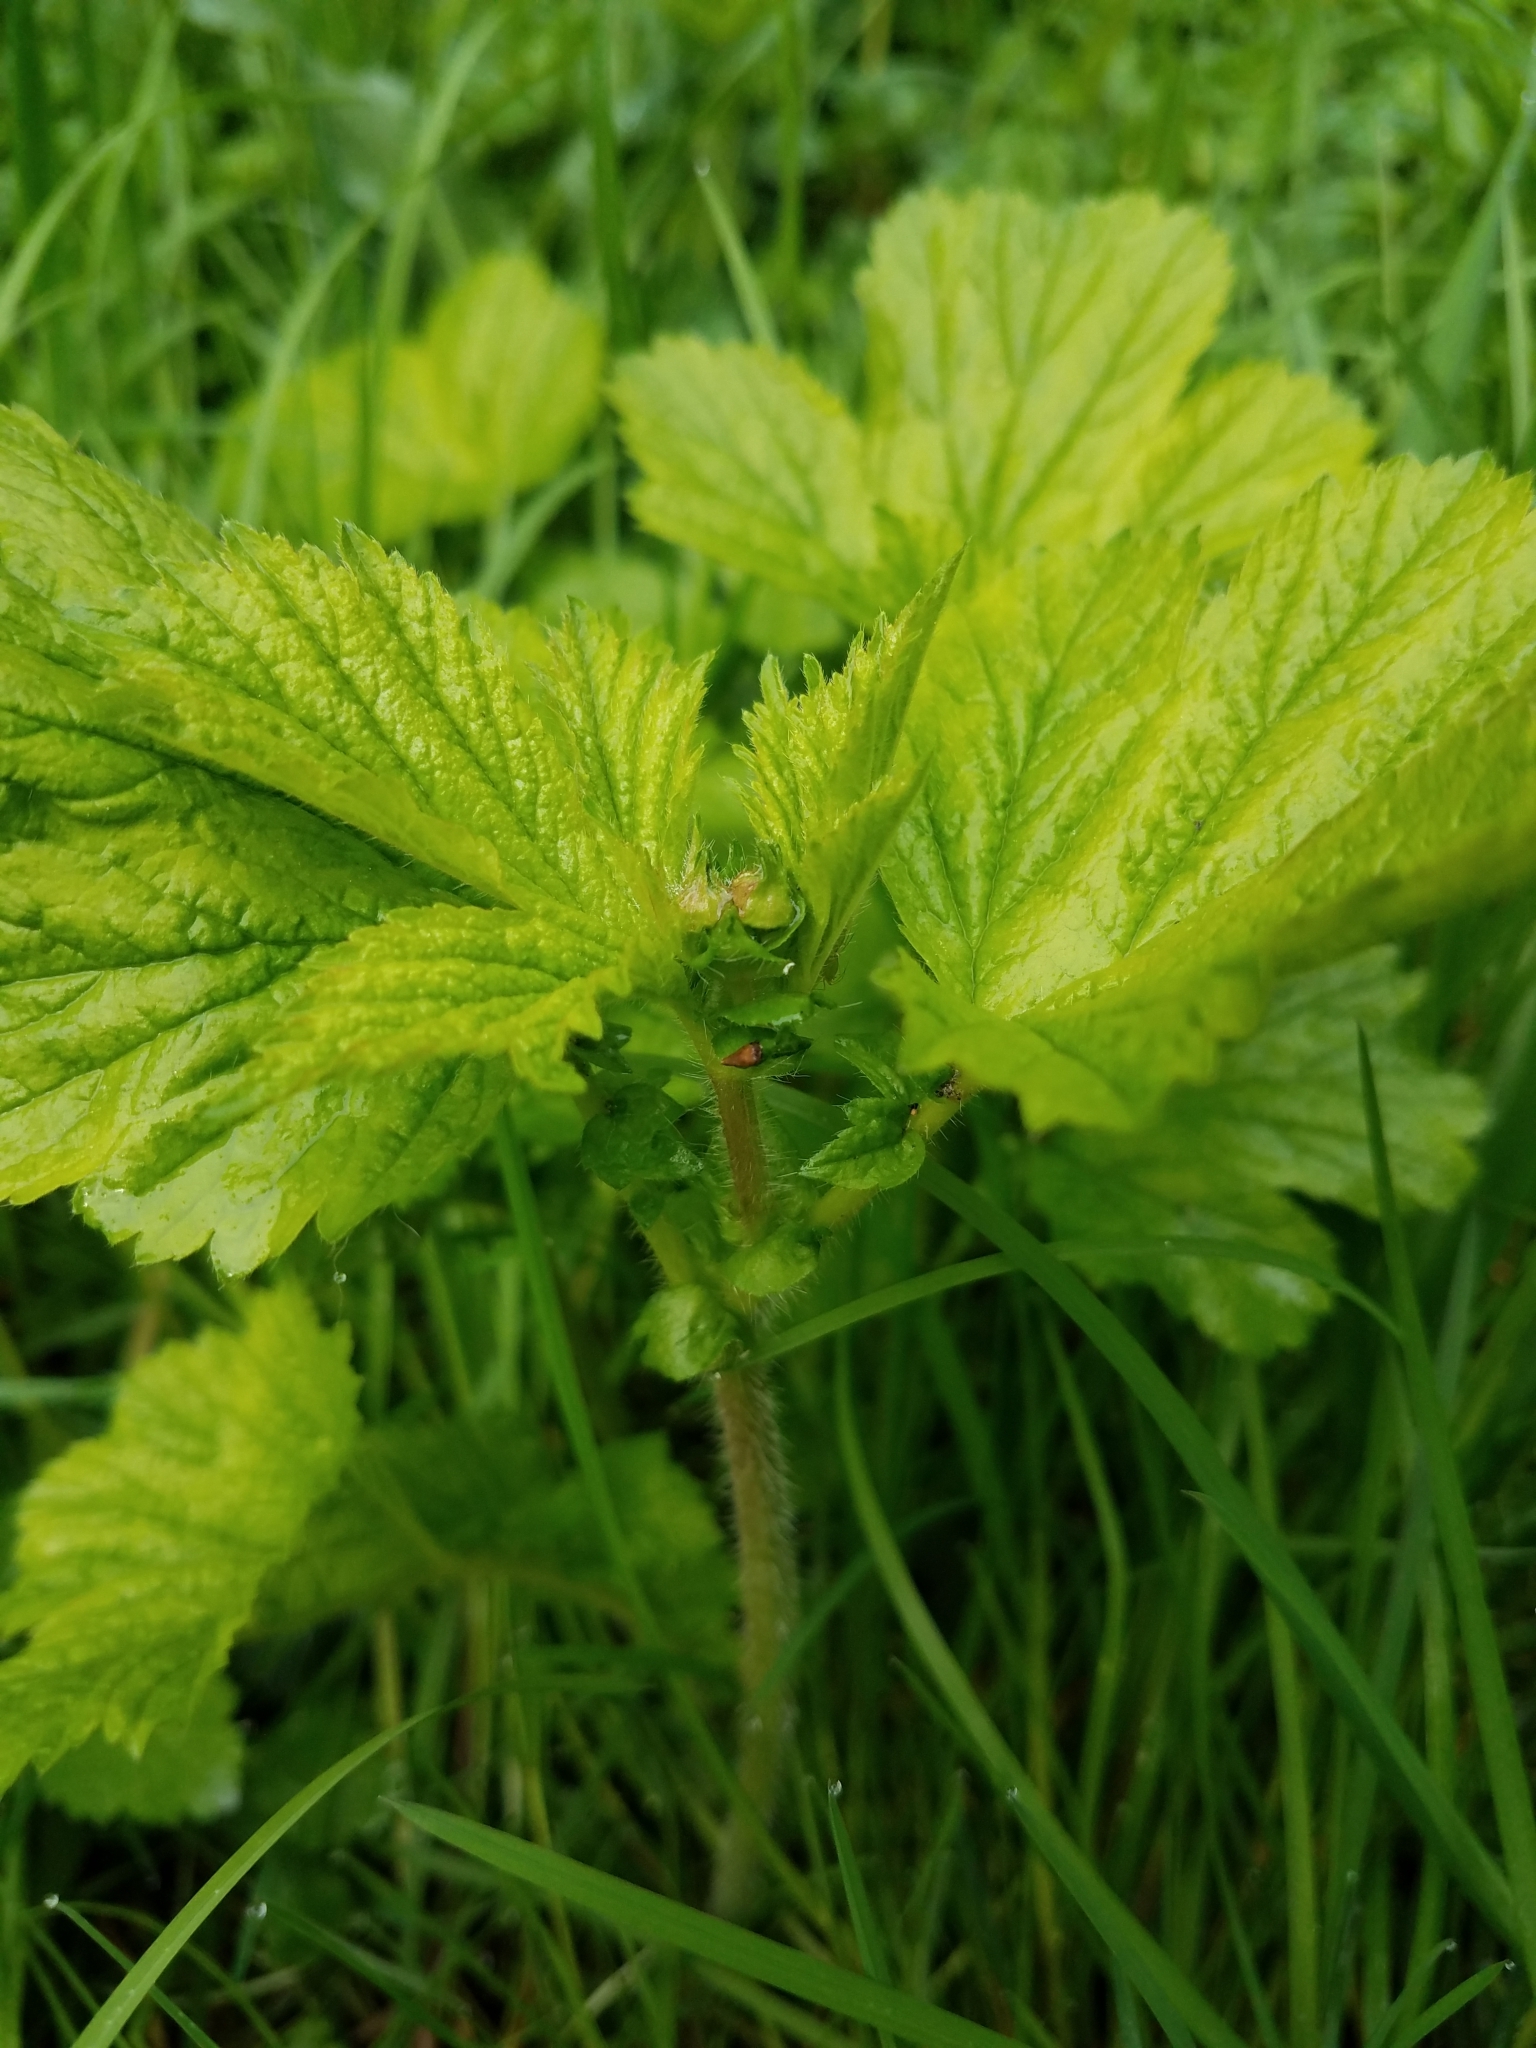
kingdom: Plantae
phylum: Tracheophyta
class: Magnoliopsida
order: Rosales
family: Rosaceae
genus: Geum
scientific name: Geum macrophyllum
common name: Large-leaved avens
